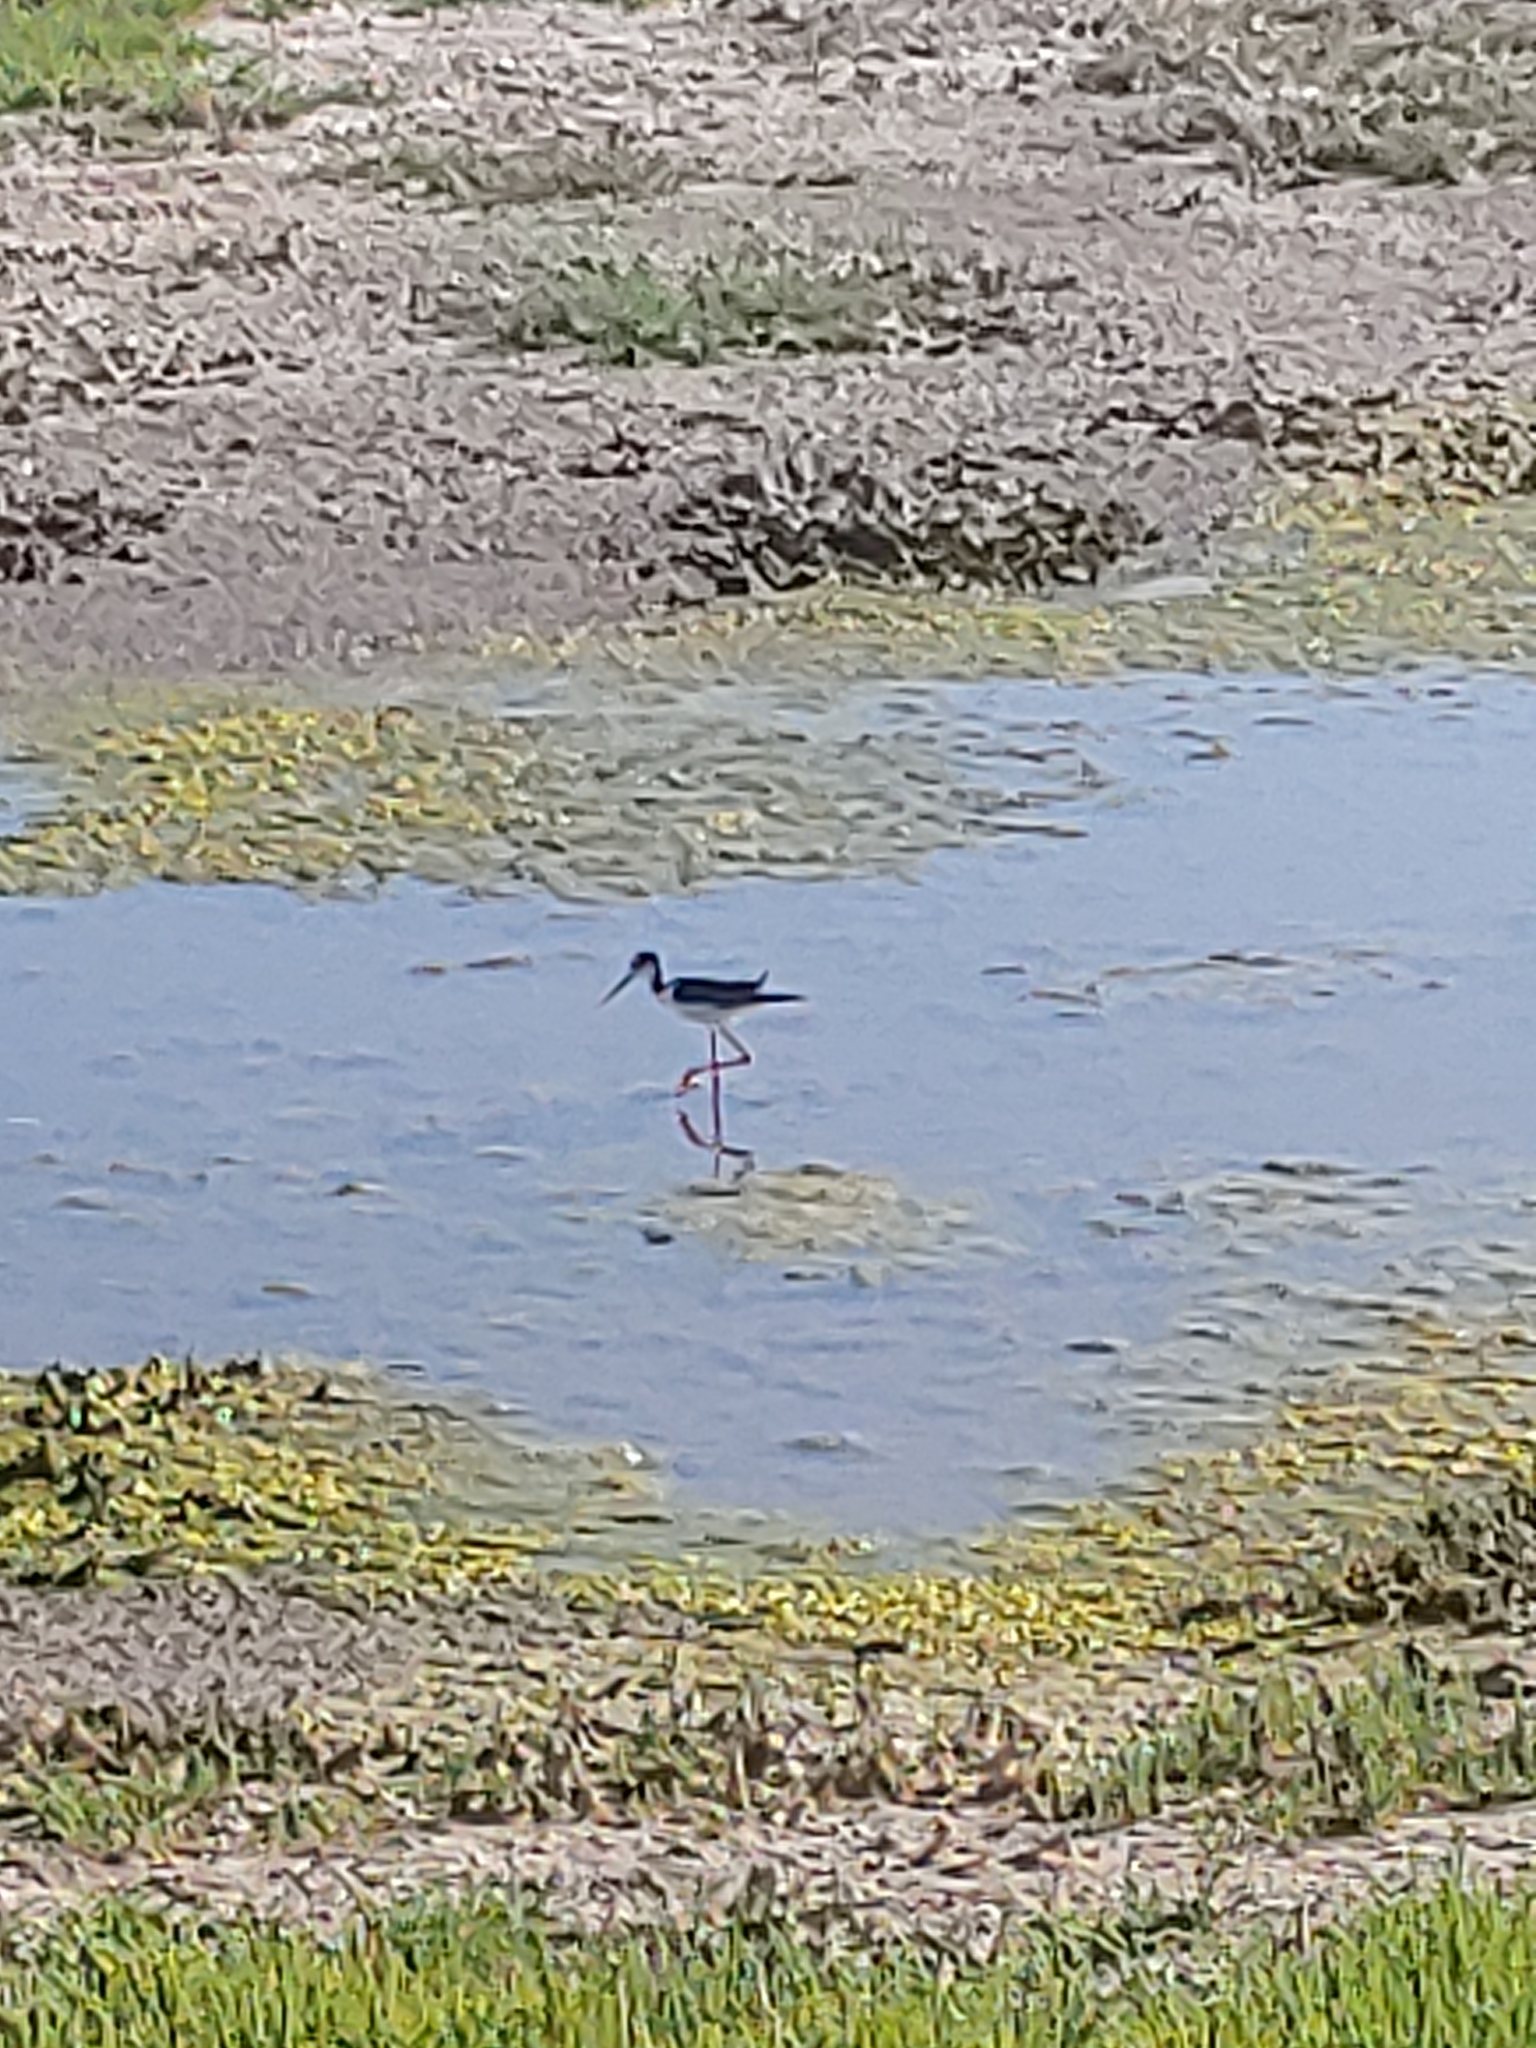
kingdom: Animalia
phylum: Chordata
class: Aves
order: Charadriiformes
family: Recurvirostridae
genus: Himantopus
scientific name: Himantopus mexicanus
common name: Black-necked stilt
